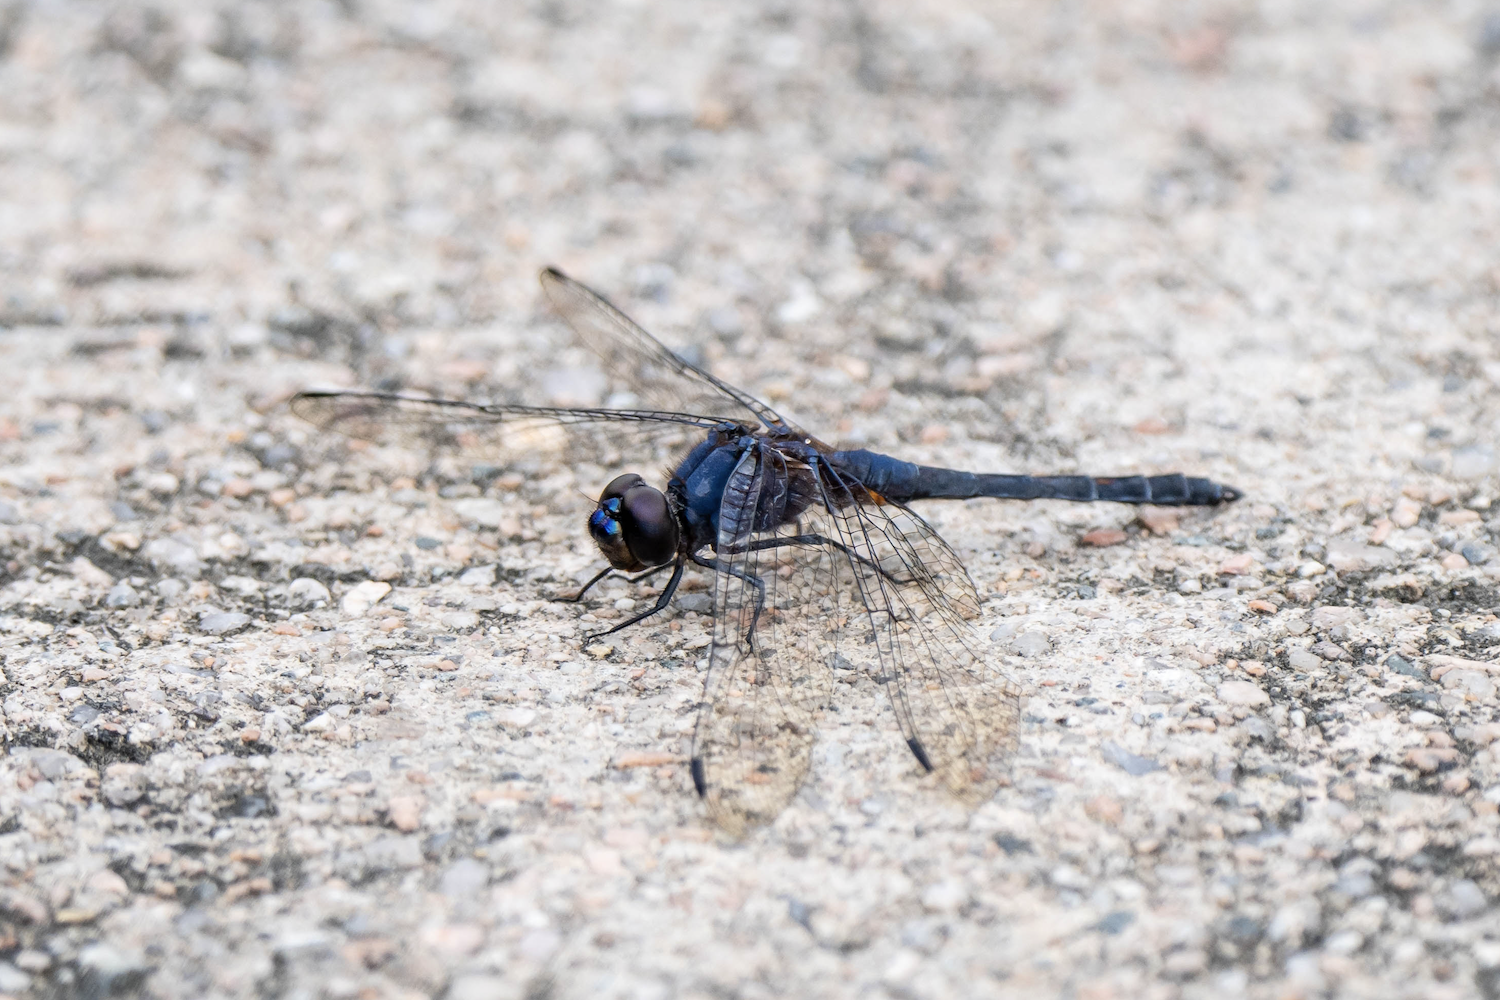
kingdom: Animalia
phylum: Arthropoda
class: Insecta
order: Odonata
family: Libellulidae
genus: Trithemis
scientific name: Trithemis festiva
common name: Indigo dropwing
